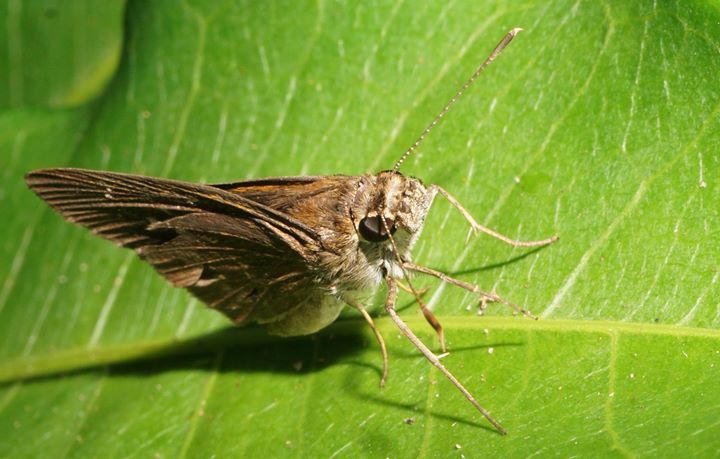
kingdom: Animalia
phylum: Arthropoda
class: Insecta
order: Lepidoptera
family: Hesperiidae
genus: Cymaenes
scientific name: Cymaenes tripunctus
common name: Dingy dotted skipper
